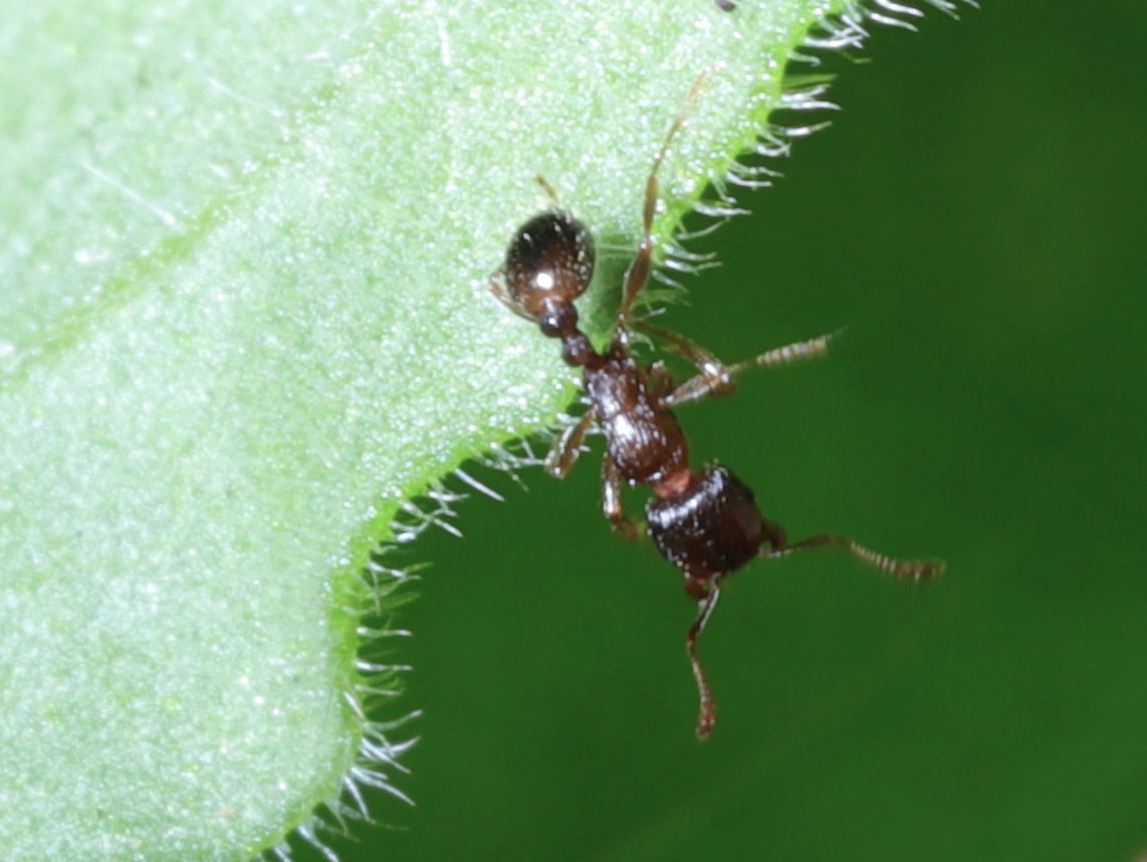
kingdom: Animalia
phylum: Arthropoda
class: Insecta
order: Hymenoptera
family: Formicidae
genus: Tetramorium
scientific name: Tetramorium immigrans
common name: Pavement ant
